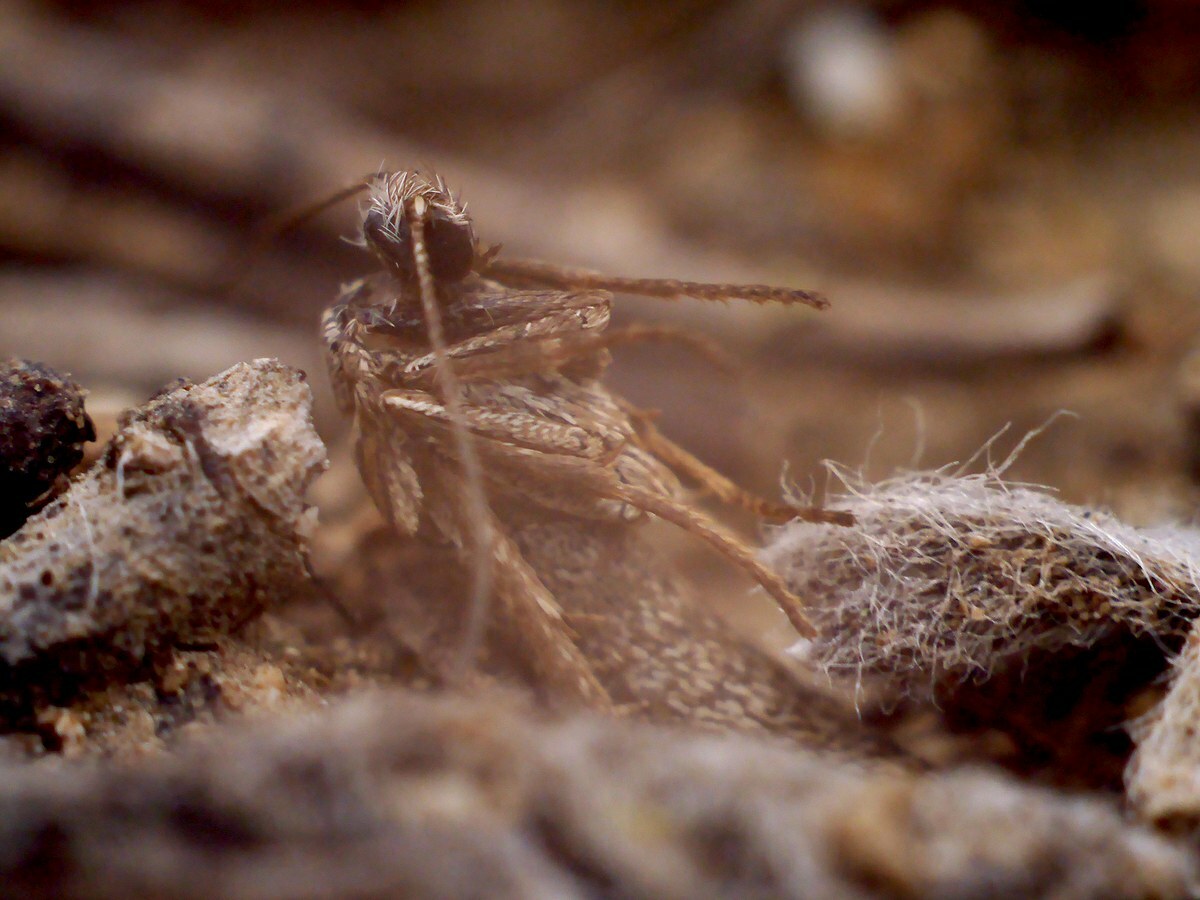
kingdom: Animalia
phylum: Arthropoda
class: Insecta
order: Lepidoptera
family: Eriocottidae
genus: Deuterotinea
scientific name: Deuterotinea casanella
